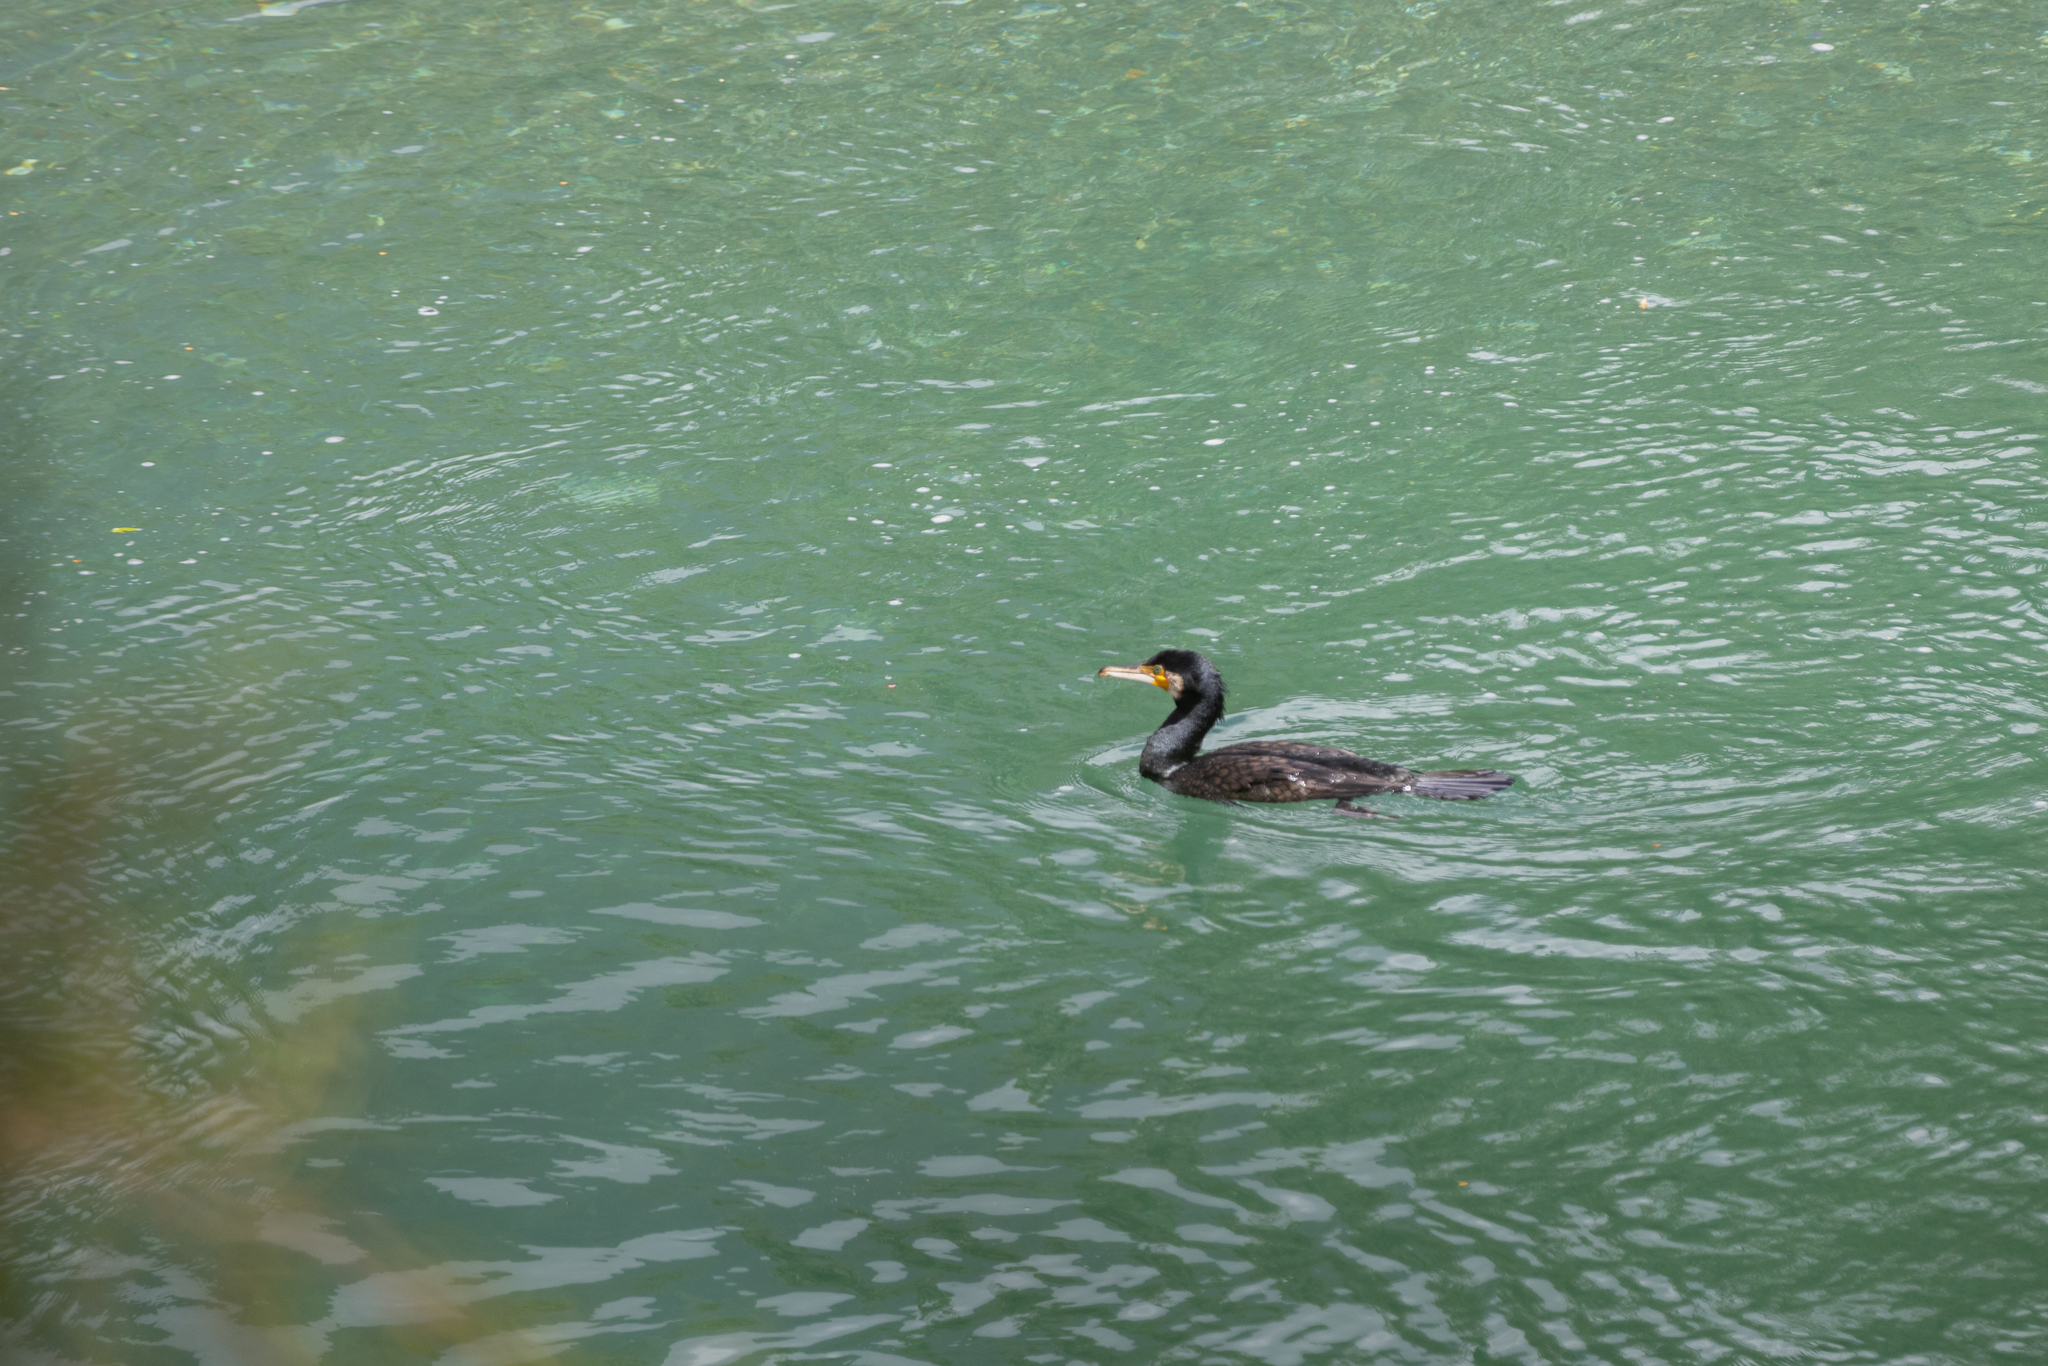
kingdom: Animalia
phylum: Chordata
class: Aves
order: Suliformes
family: Phalacrocoracidae
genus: Phalacrocorax
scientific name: Phalacrocorax carbo
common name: Great cormorant
